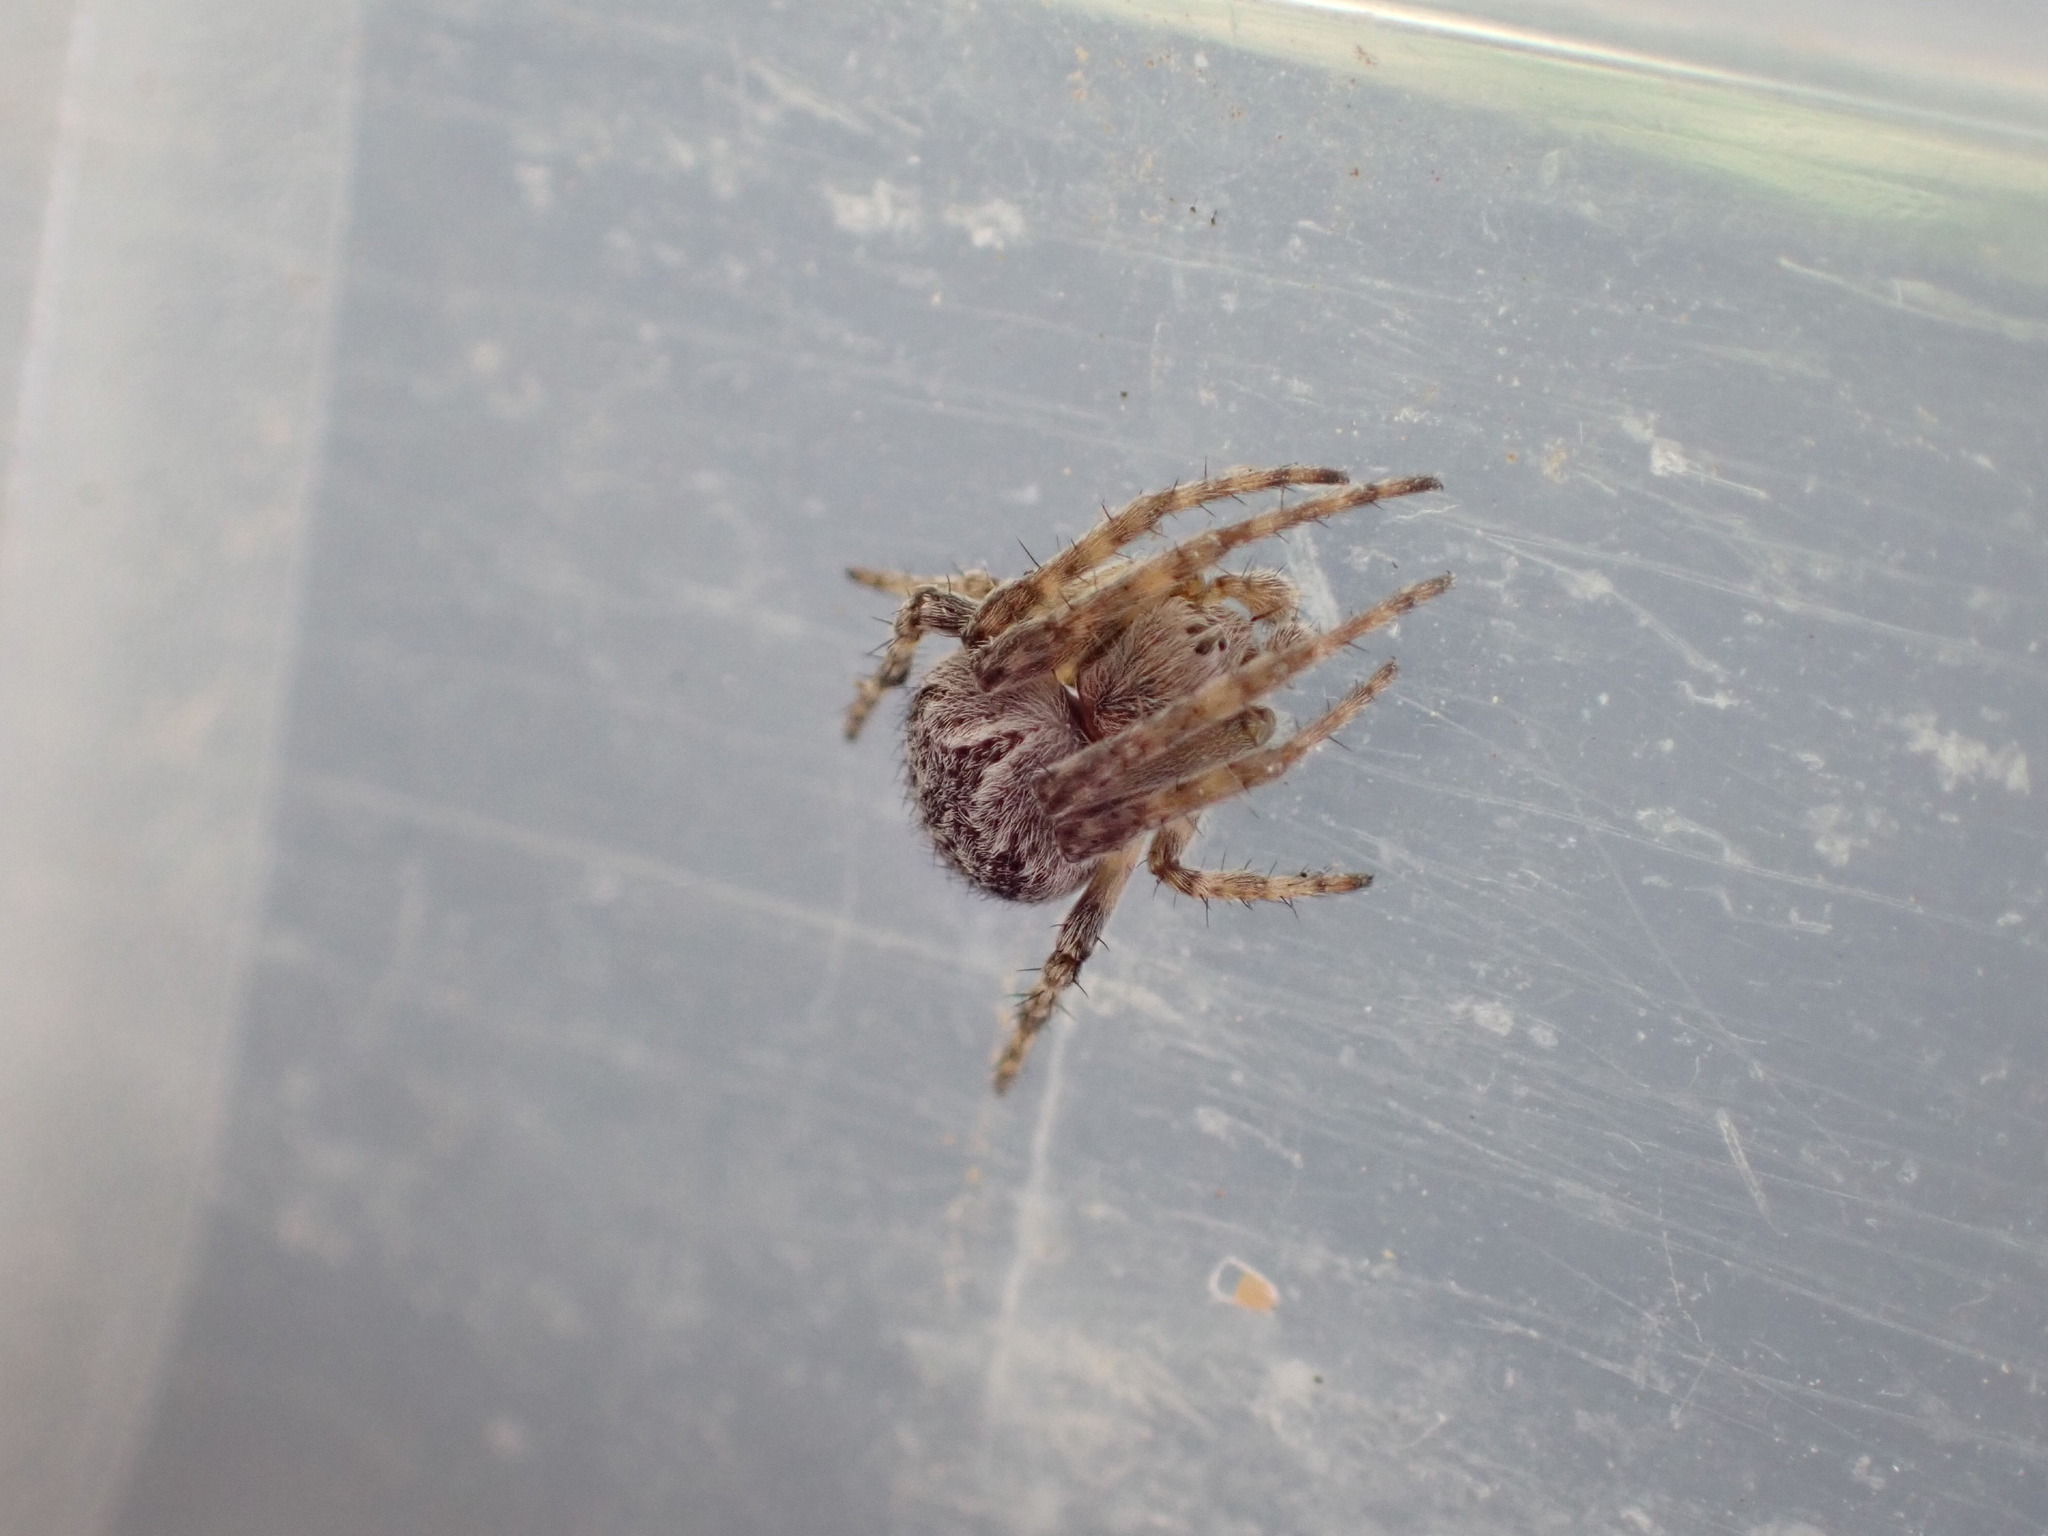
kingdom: Animalia
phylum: Arthropoda
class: Arachnida
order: Araneae
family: Araneidae
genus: Agalenatea
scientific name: Agalenatea redii
